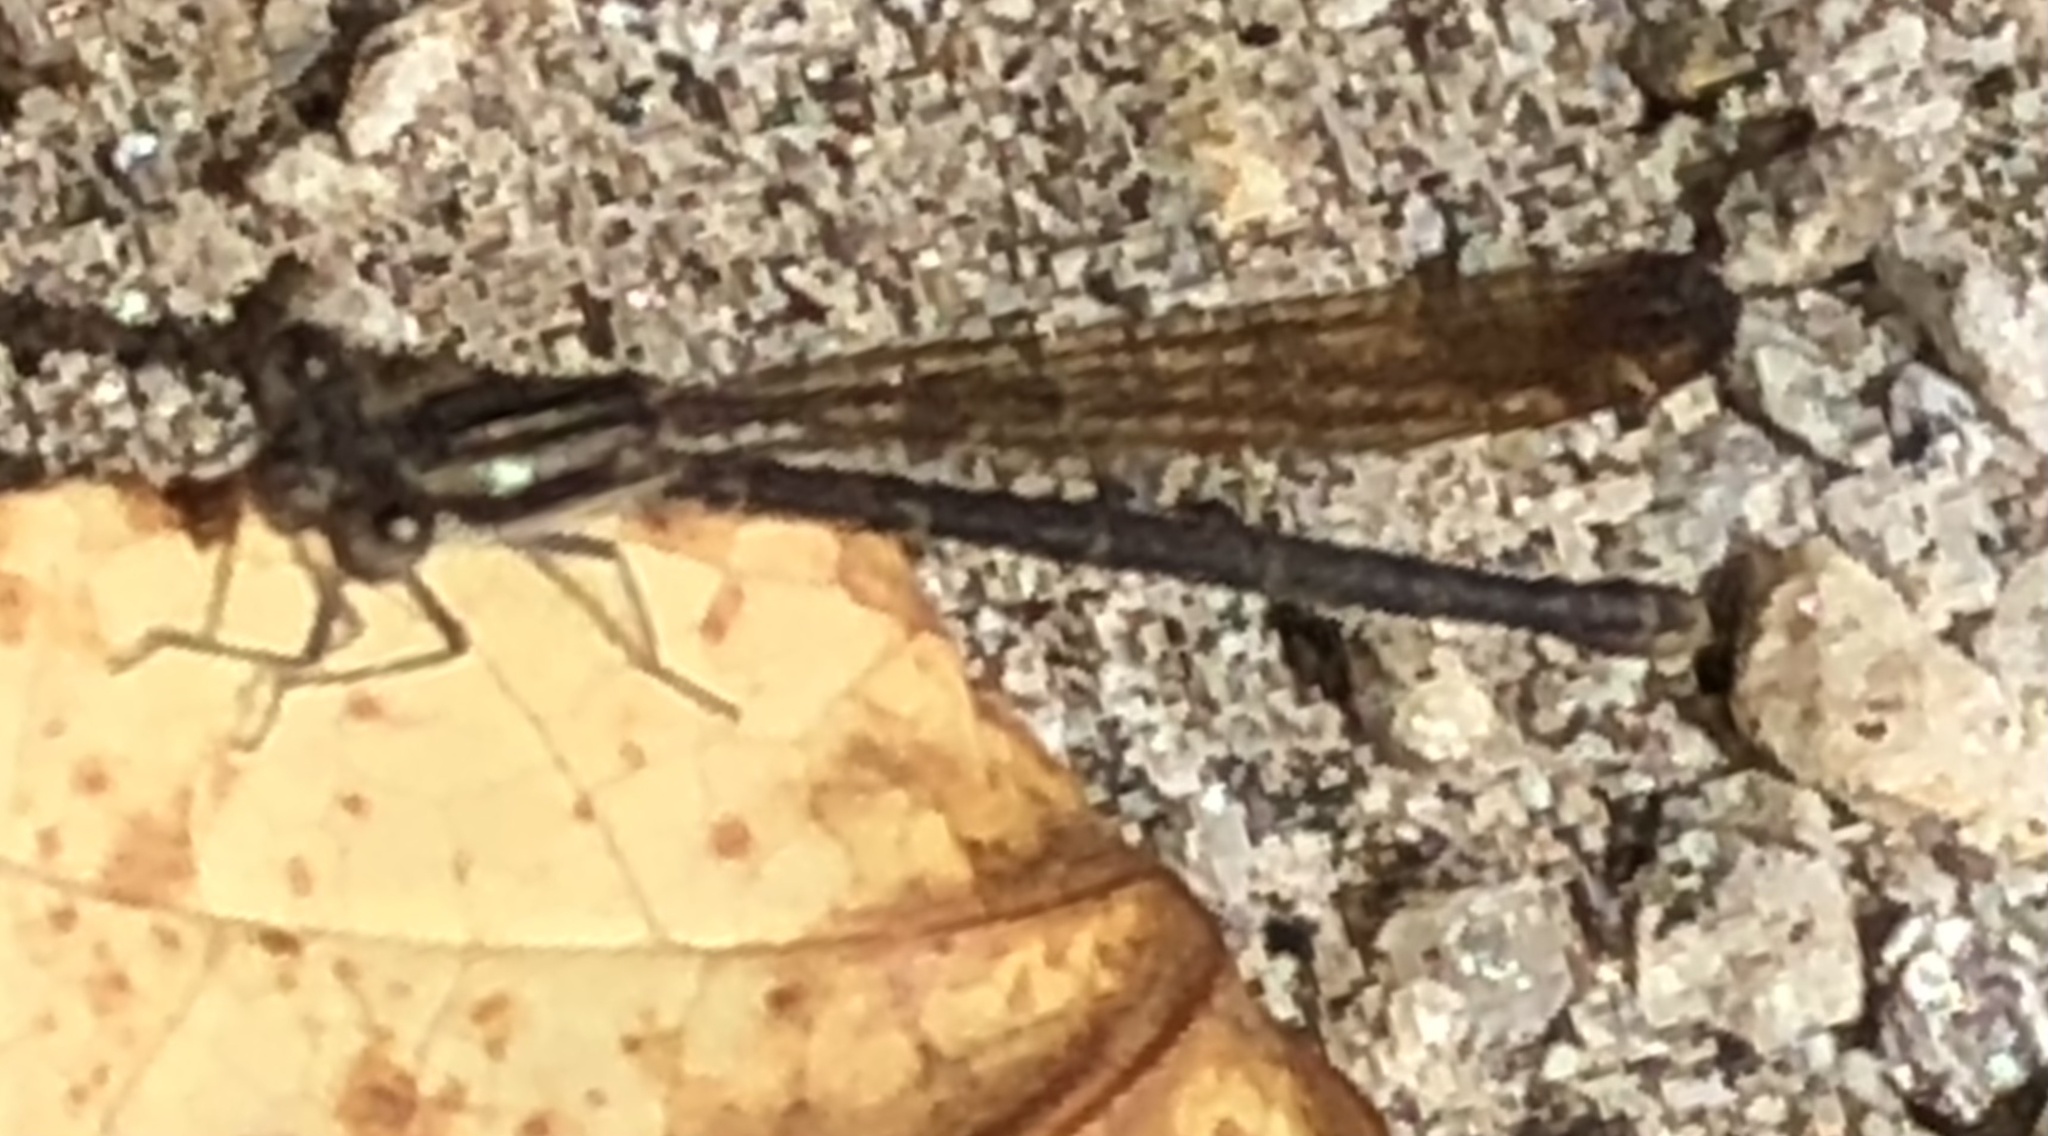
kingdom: Animalia
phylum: Arthropoda
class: Insecta
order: Odonata
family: Coenagrionidae
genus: Argia
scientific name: Argia fumipennis
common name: Variable dancer
